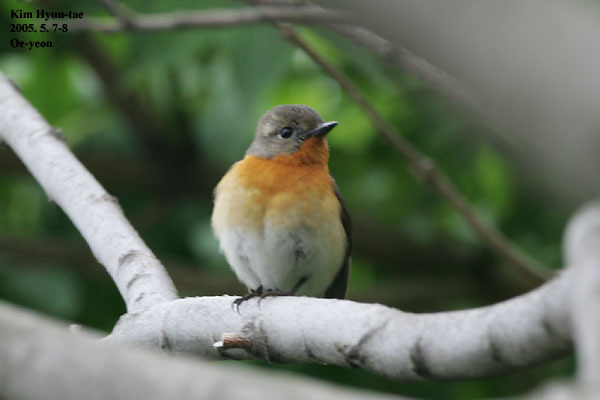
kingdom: Animalia
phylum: Chordata
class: Aves
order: Passeriformes
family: Muscicapidae
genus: Ficedula
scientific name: Ficedula mugimaki
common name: Mugimaki flycatcher
